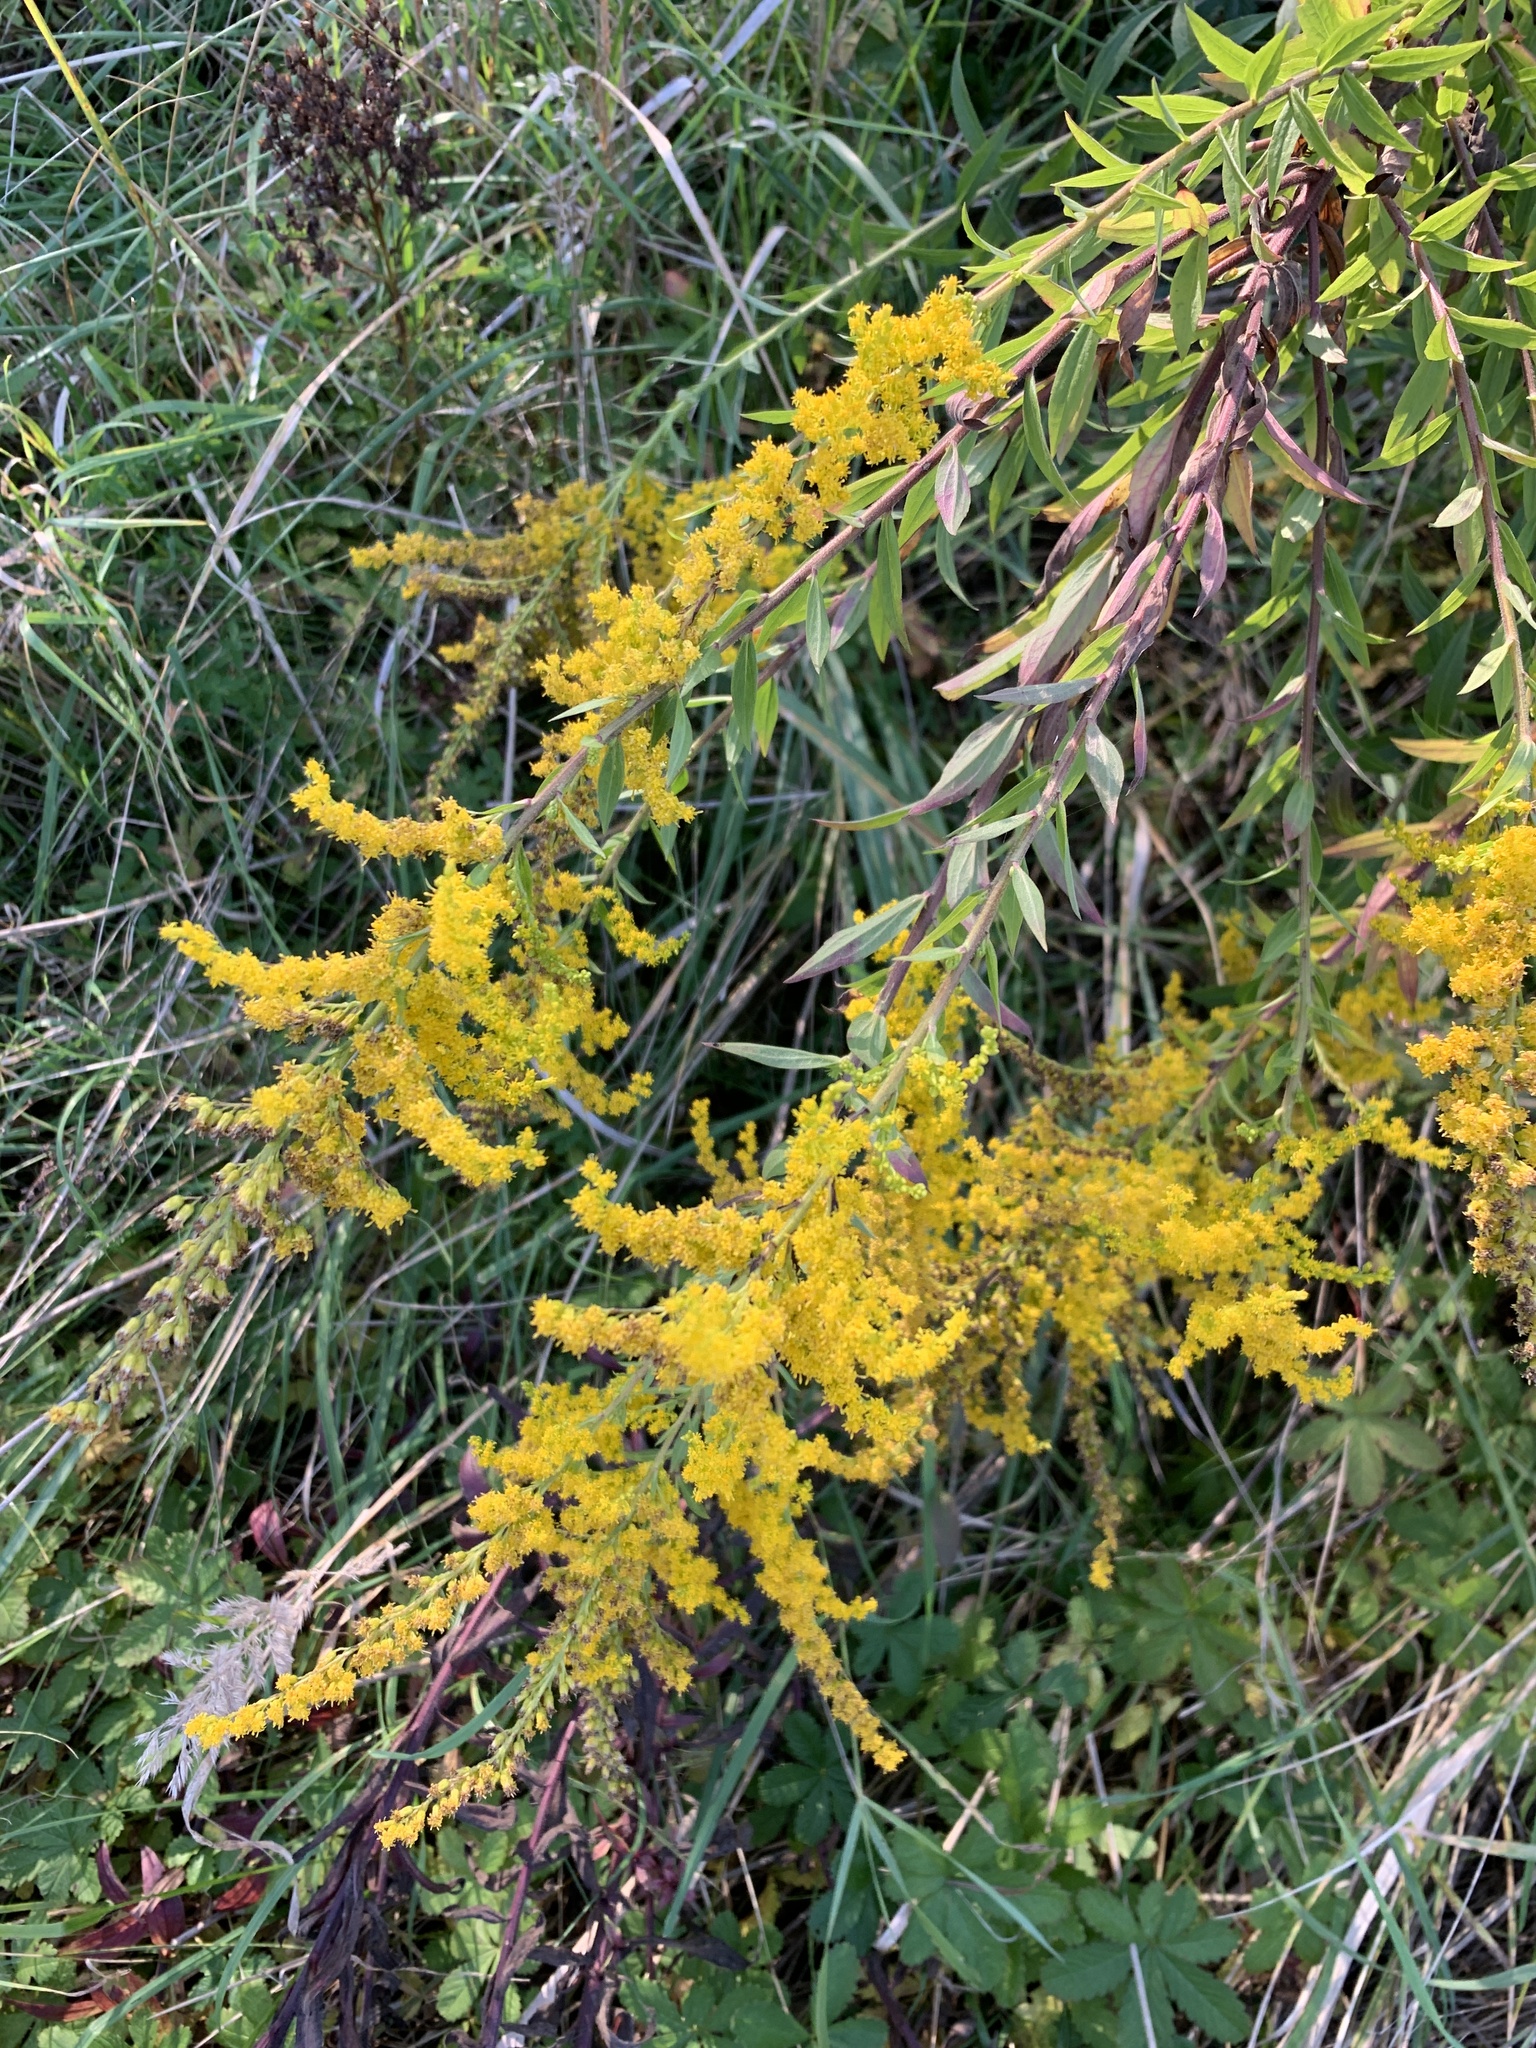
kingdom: Plantae
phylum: Tracheophyta
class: Magnoliopsida
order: Asterales
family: Asteraceae
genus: Solidago
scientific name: Solidago canadensis
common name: Canada goldenrod
